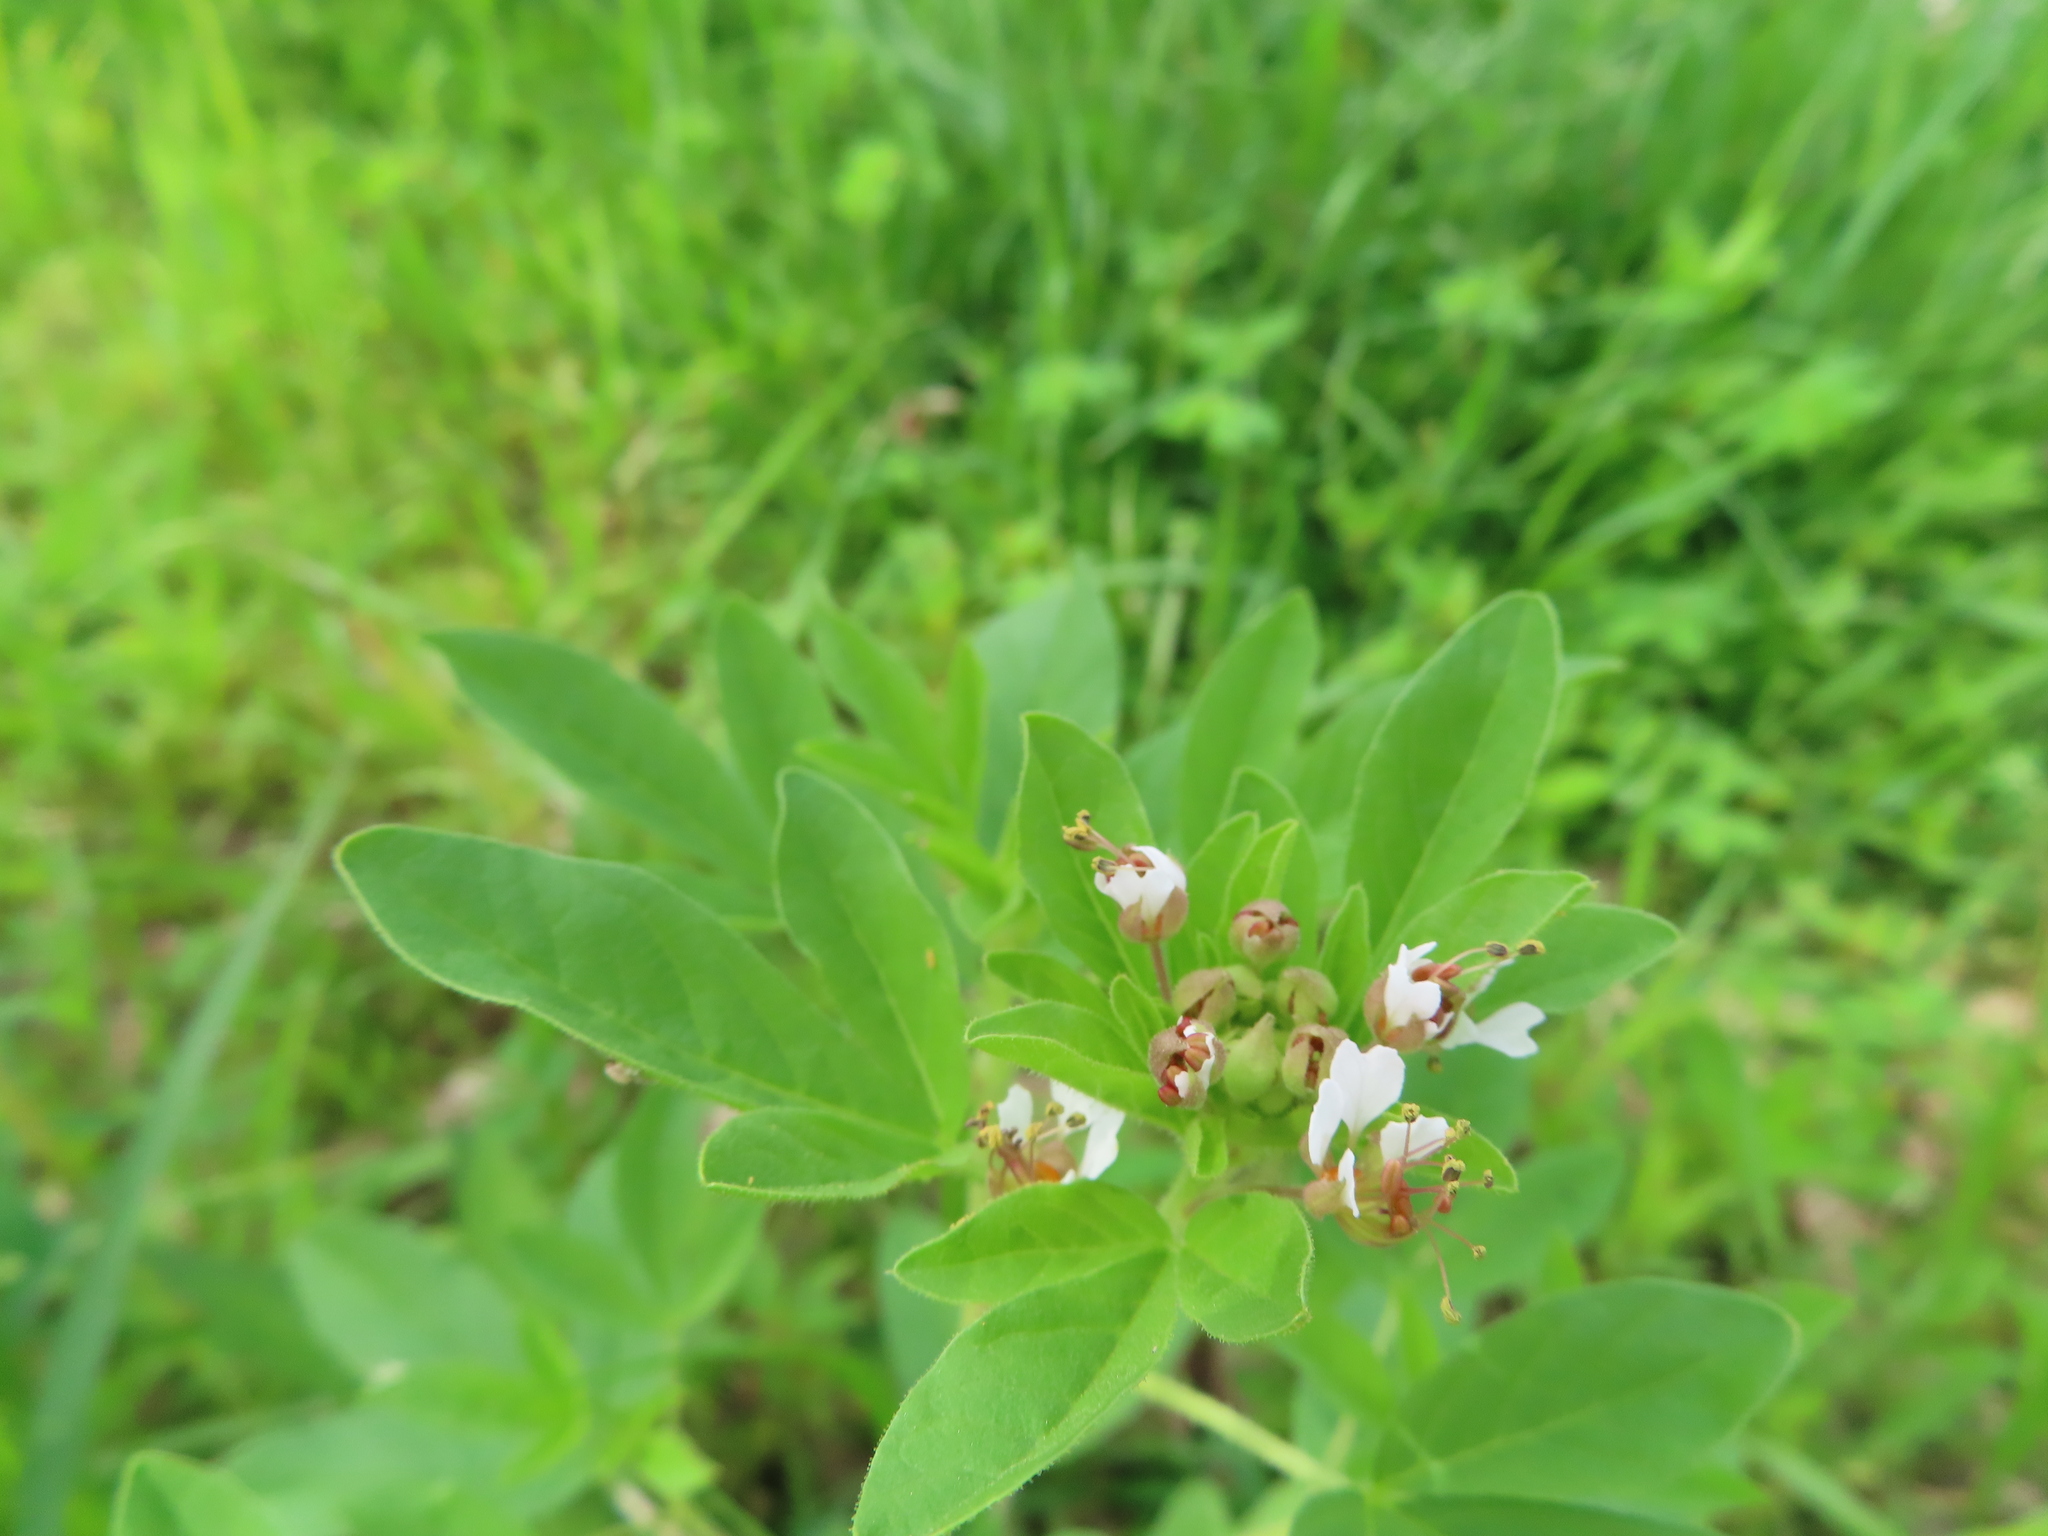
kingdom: Plantae
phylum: Tracheophyta
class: Magnoliopsida
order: Brassicales
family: Cleomaceae
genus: Polanisia
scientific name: Polanisia dodecandra
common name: Clammyweed
